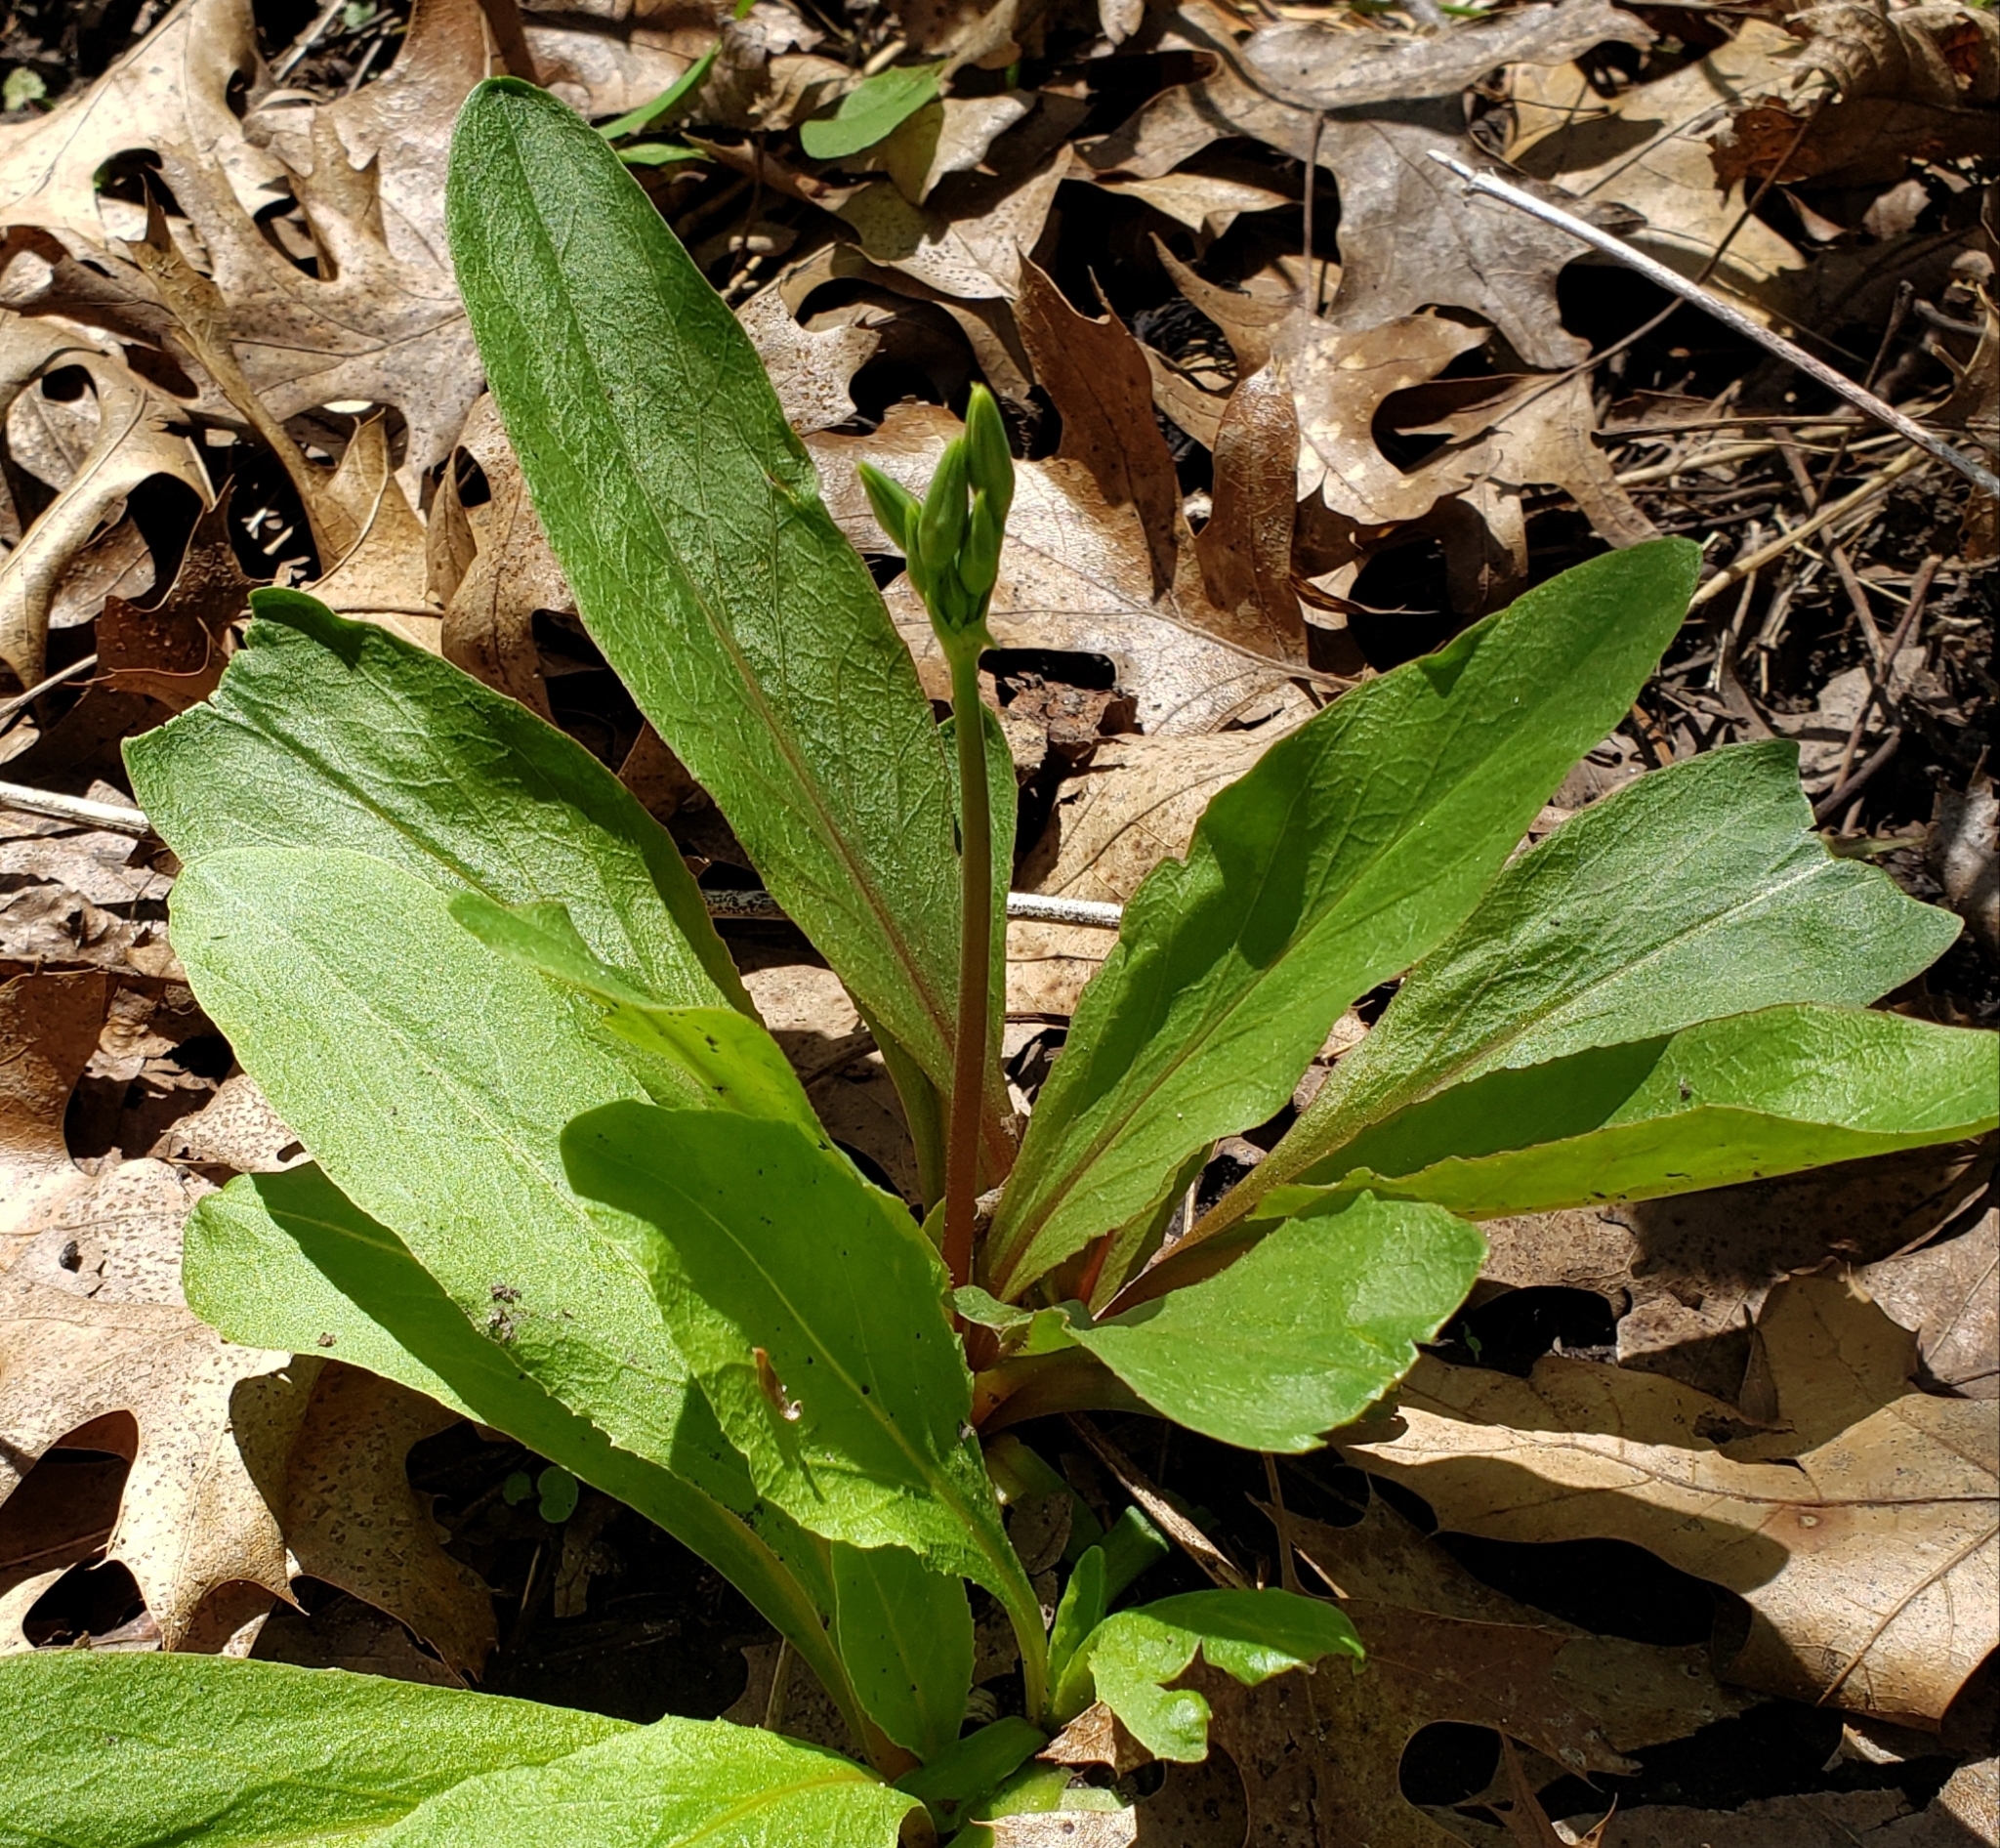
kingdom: Plantae
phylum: Tracheophyta
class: Magnoliopsida
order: Ericales
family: Primulaceae
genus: Dodecatheon
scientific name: Dodecatheon meadia
